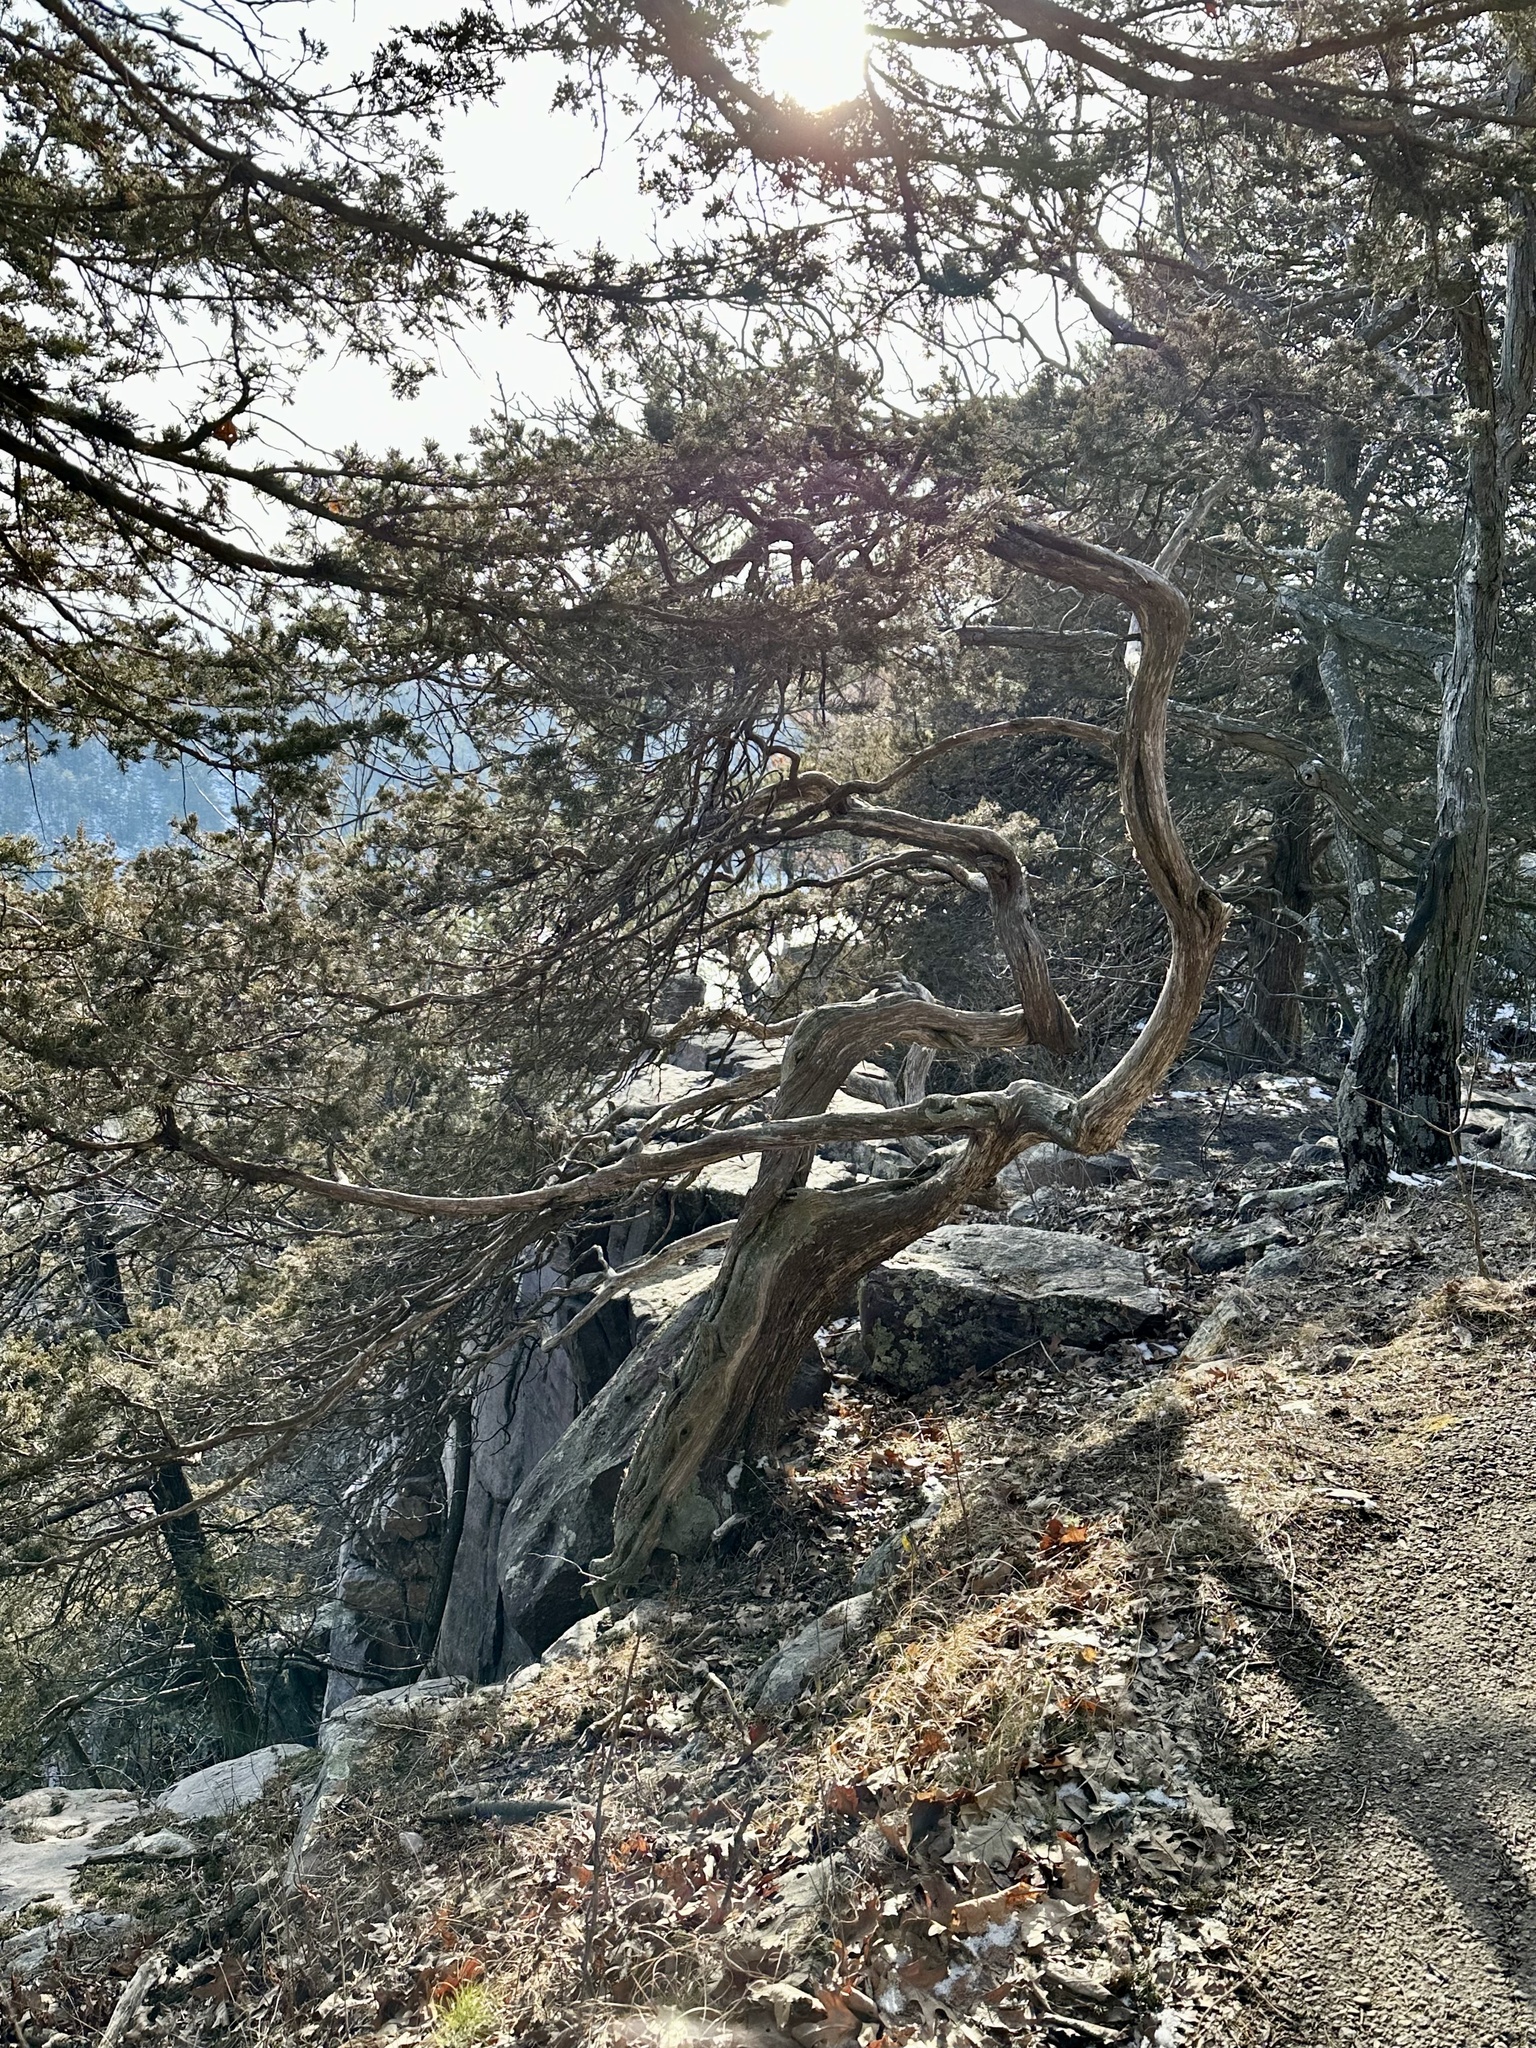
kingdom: Plantae
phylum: Tracheophyta
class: Pinopsida
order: Pinales
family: Cupressaceae
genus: Juniperus
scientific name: Juniperus virginiana
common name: Red juniper
